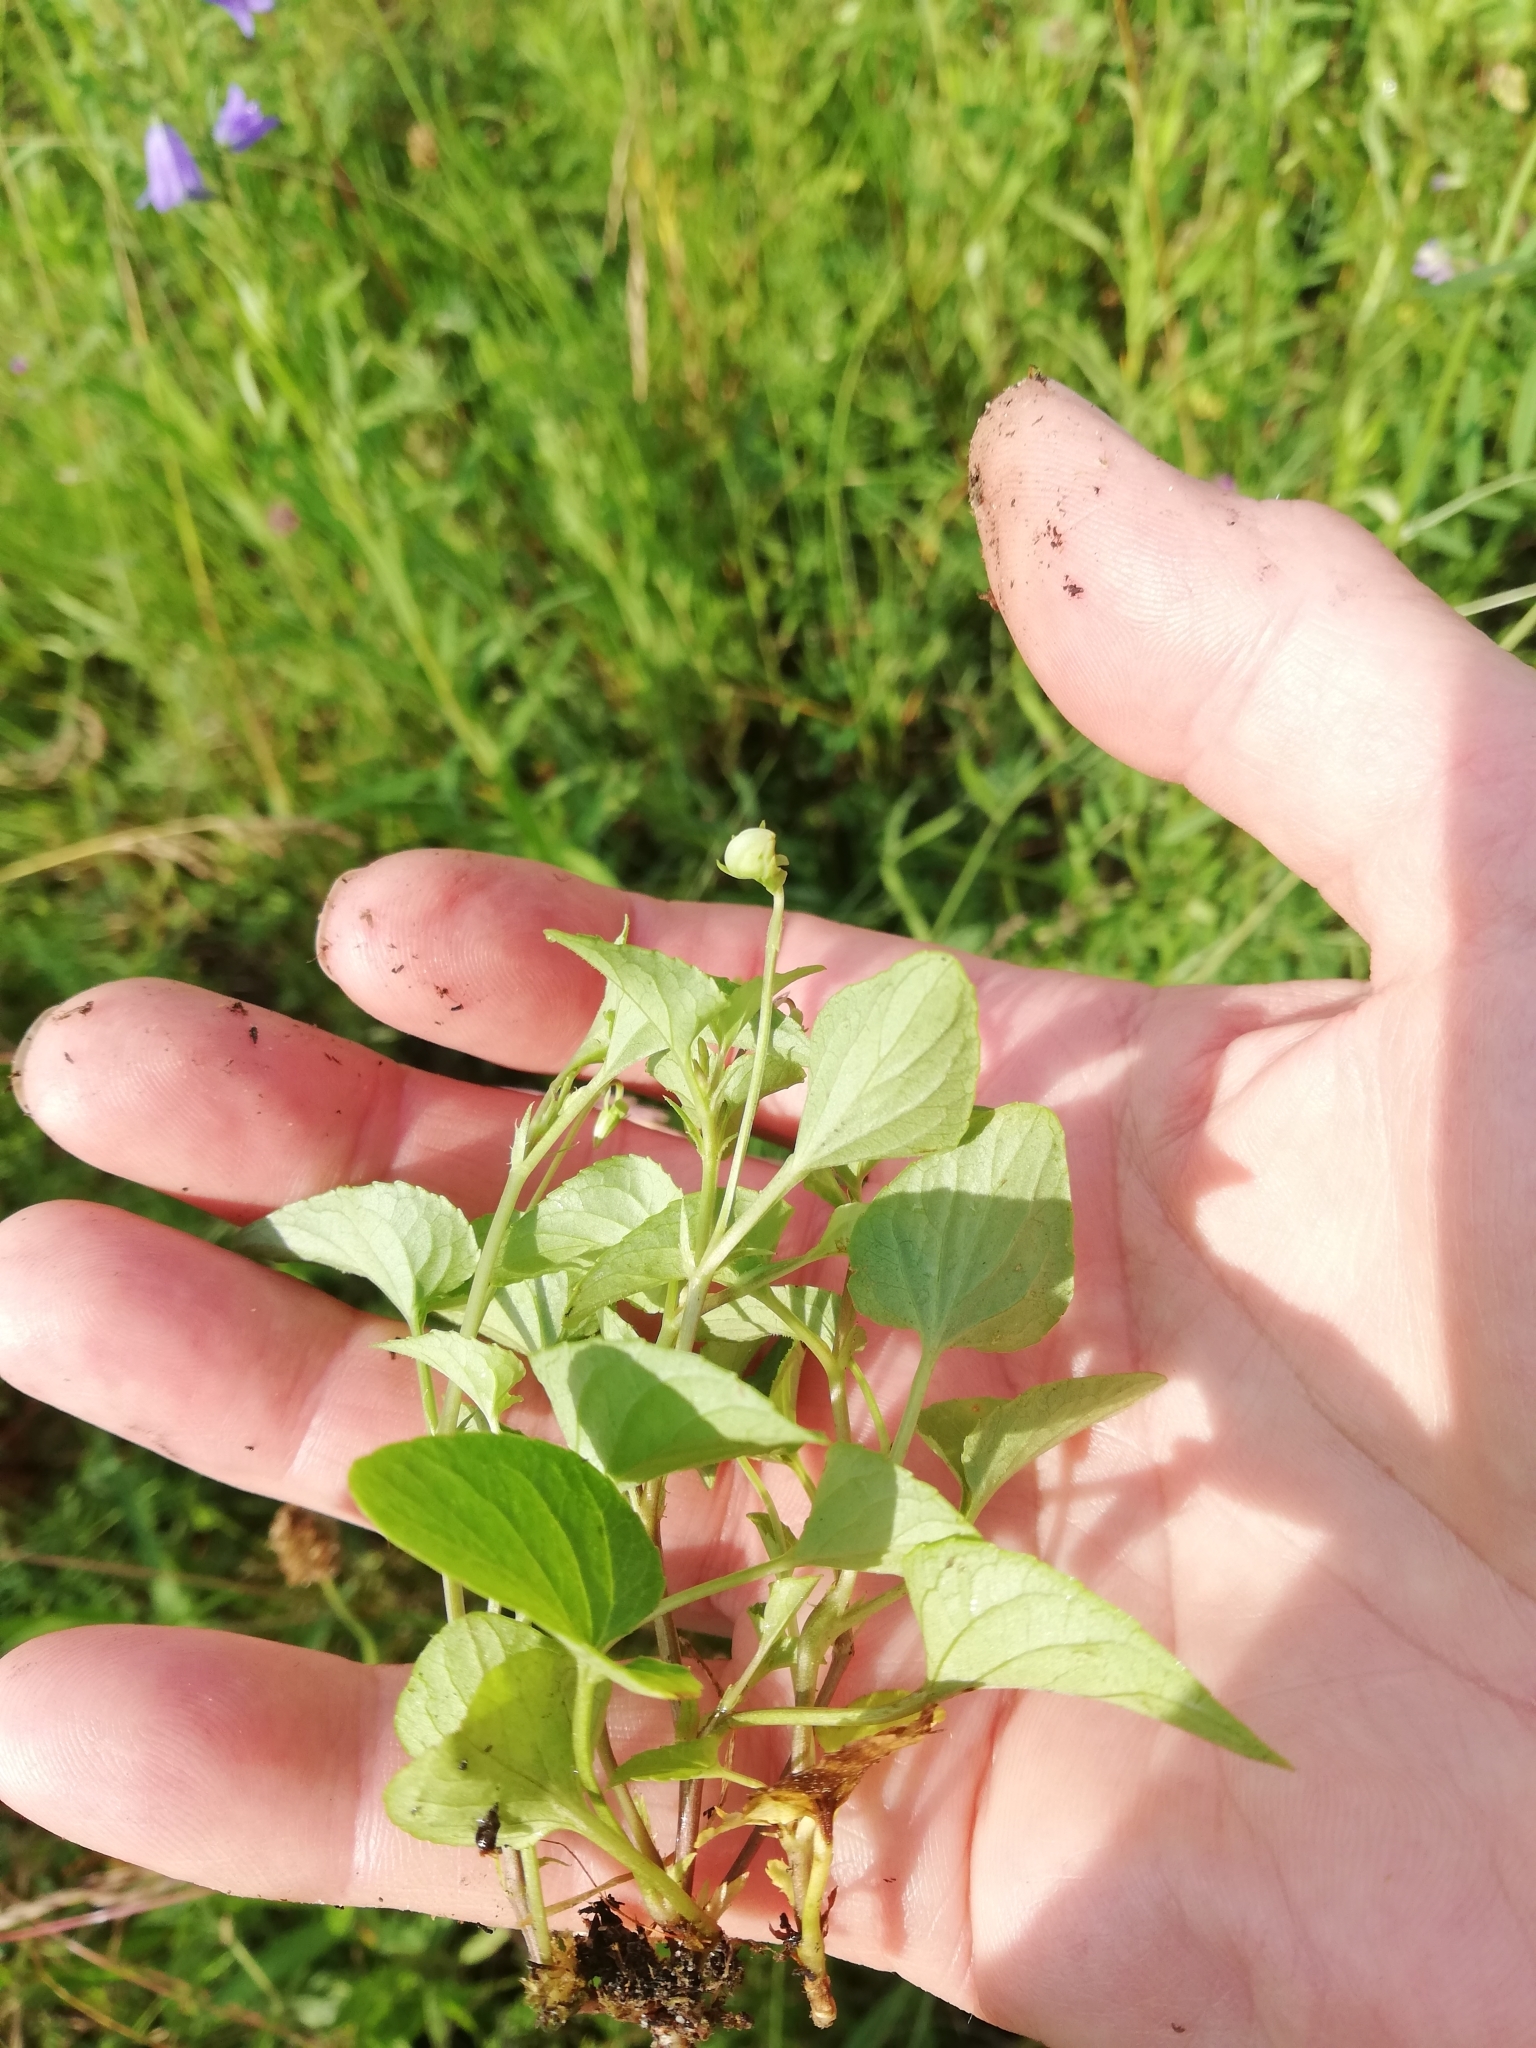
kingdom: Plantae
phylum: Tracheophyta
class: Magnoliopsida
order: Malpighiales
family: Violaceae
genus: Viola
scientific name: Viola canina
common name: Heath dog-violet
